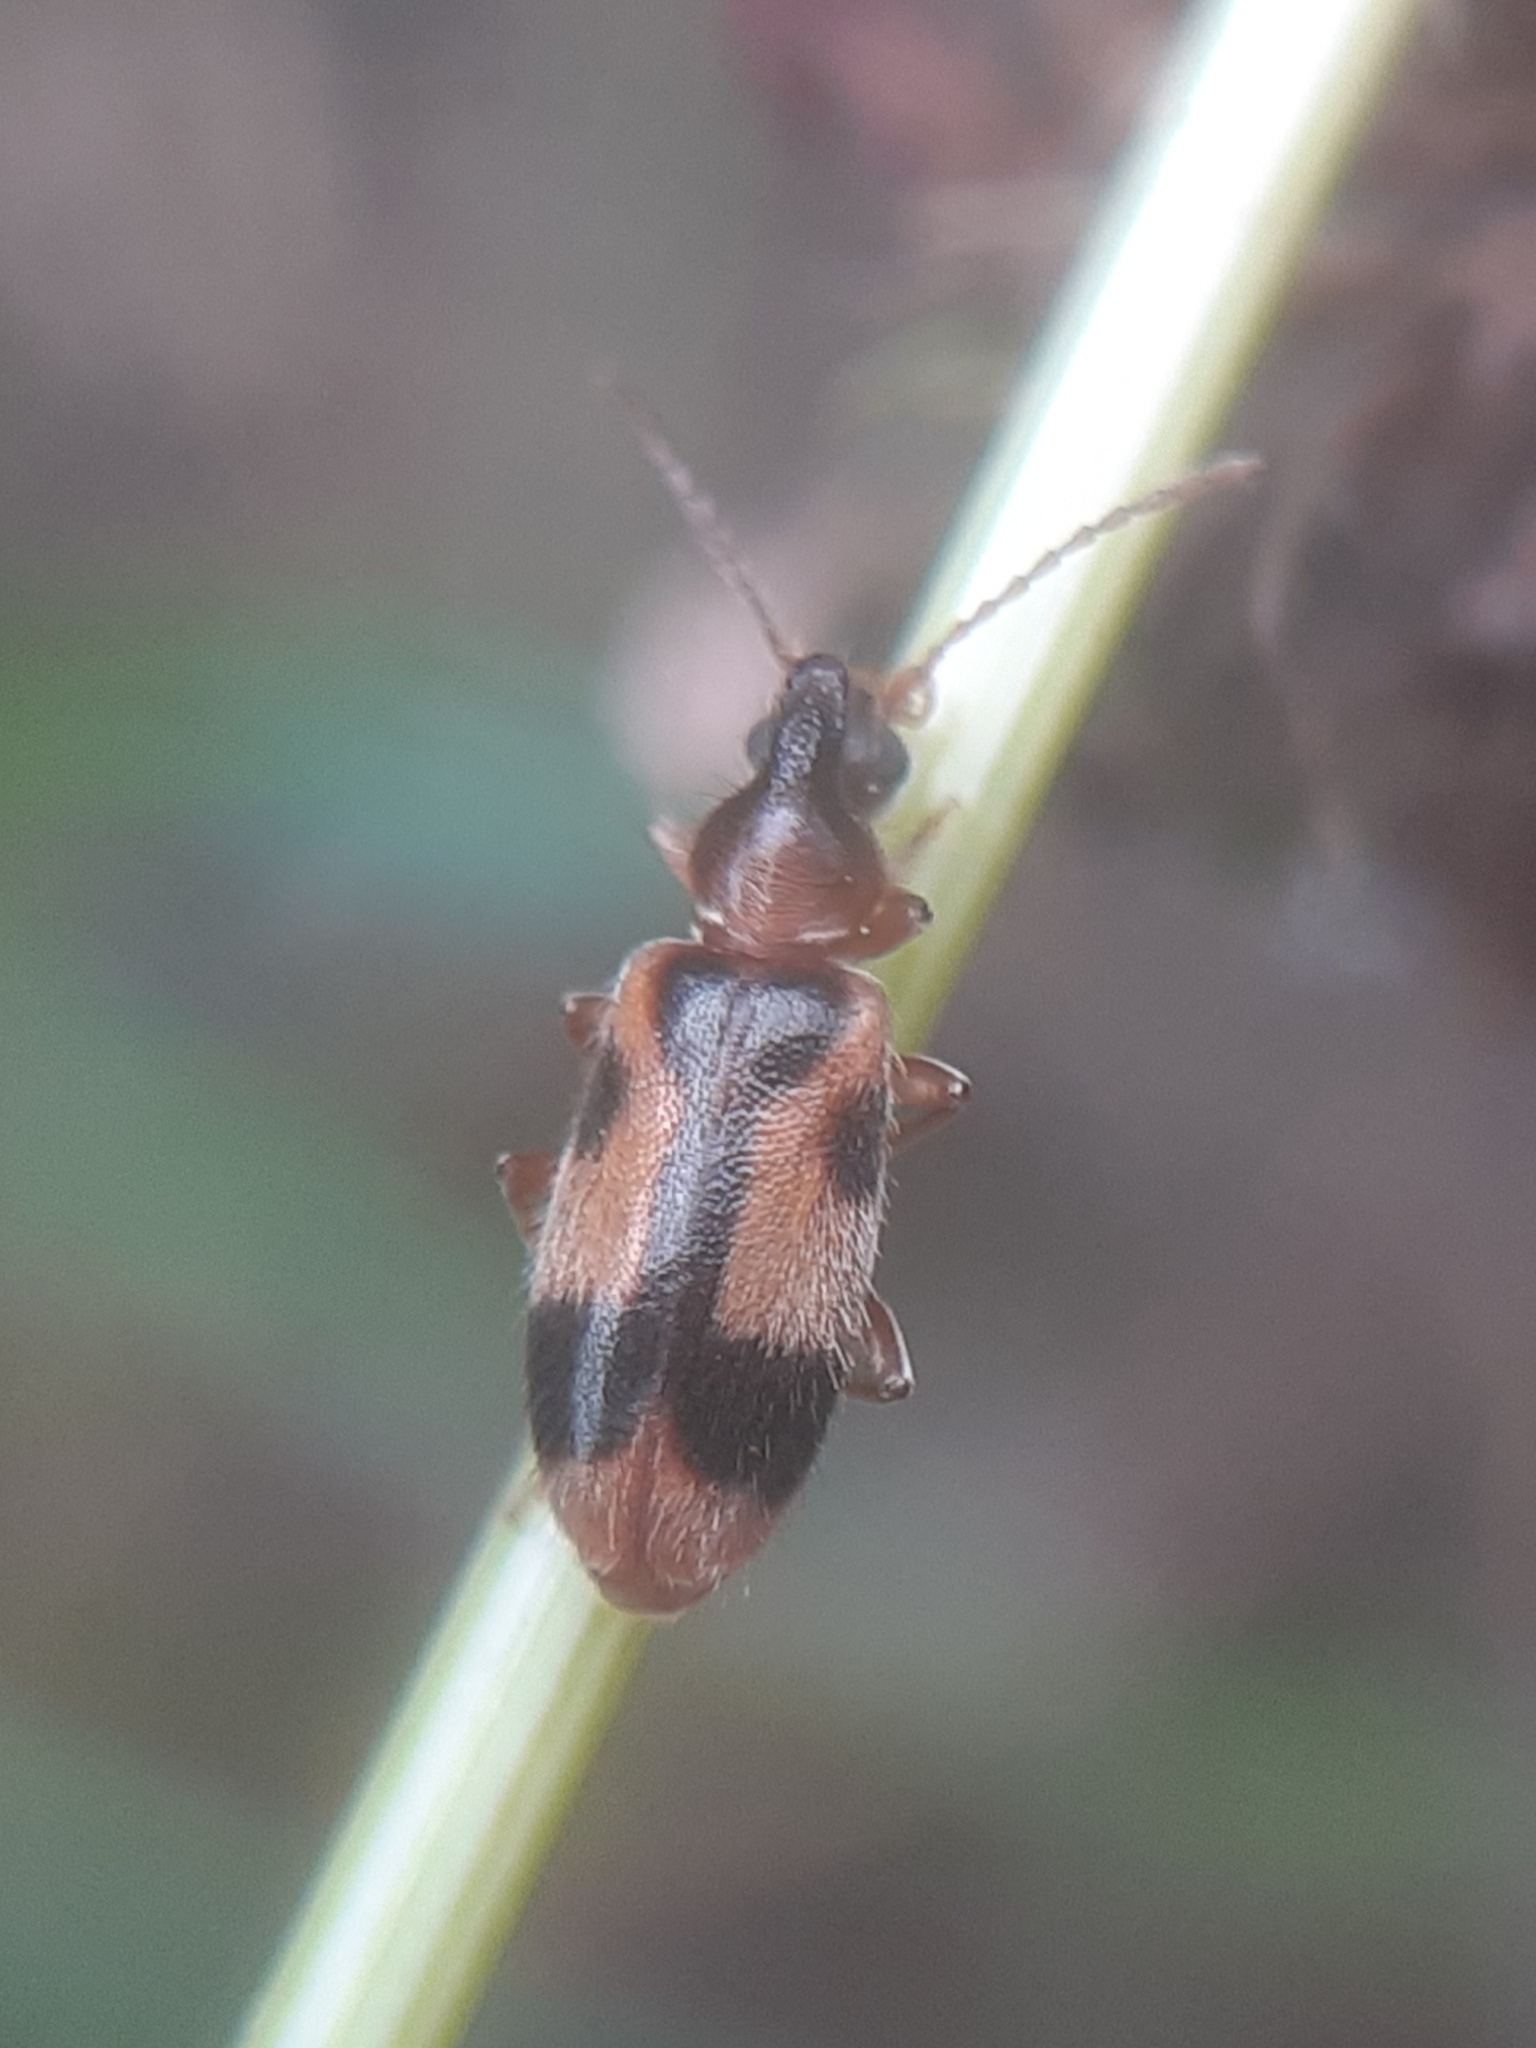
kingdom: Animalia
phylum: Arthropoda
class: Insecta
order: Coleoptera
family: Anthicidae
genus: Notoxus
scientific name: Notoxus monoceros
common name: Monoceros beetle
